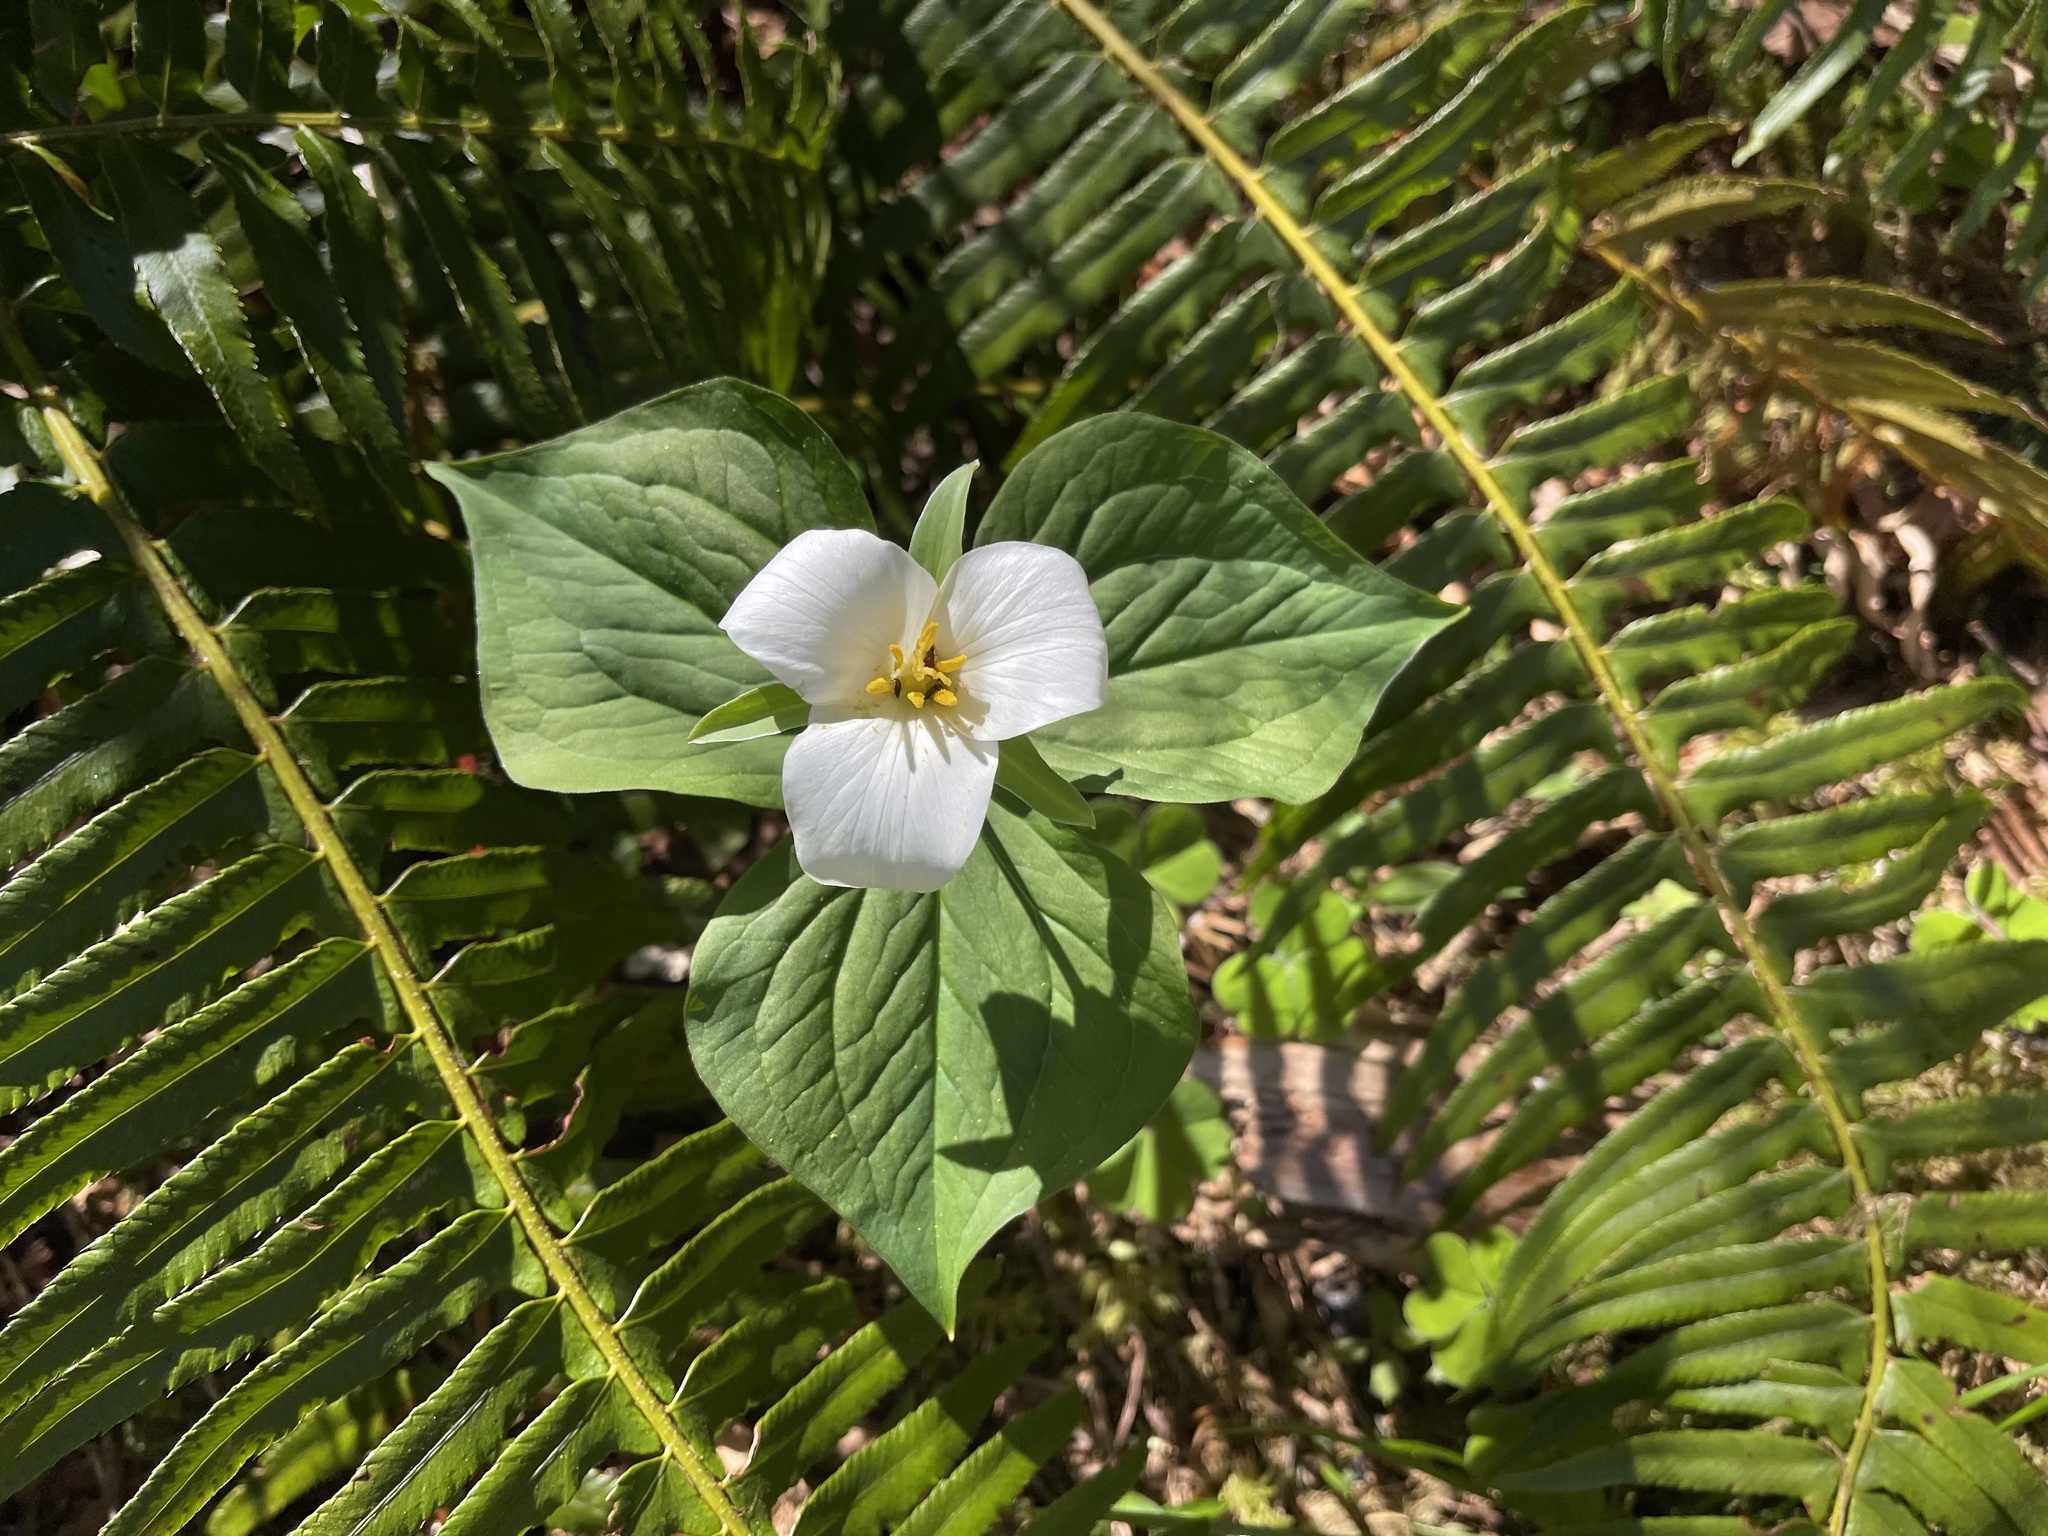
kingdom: Plantae
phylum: Tracheophyta
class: Liliopsida
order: Liliales
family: Melanthiaceae
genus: Trillium
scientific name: Trillium ovatum
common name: Pacific trillium
